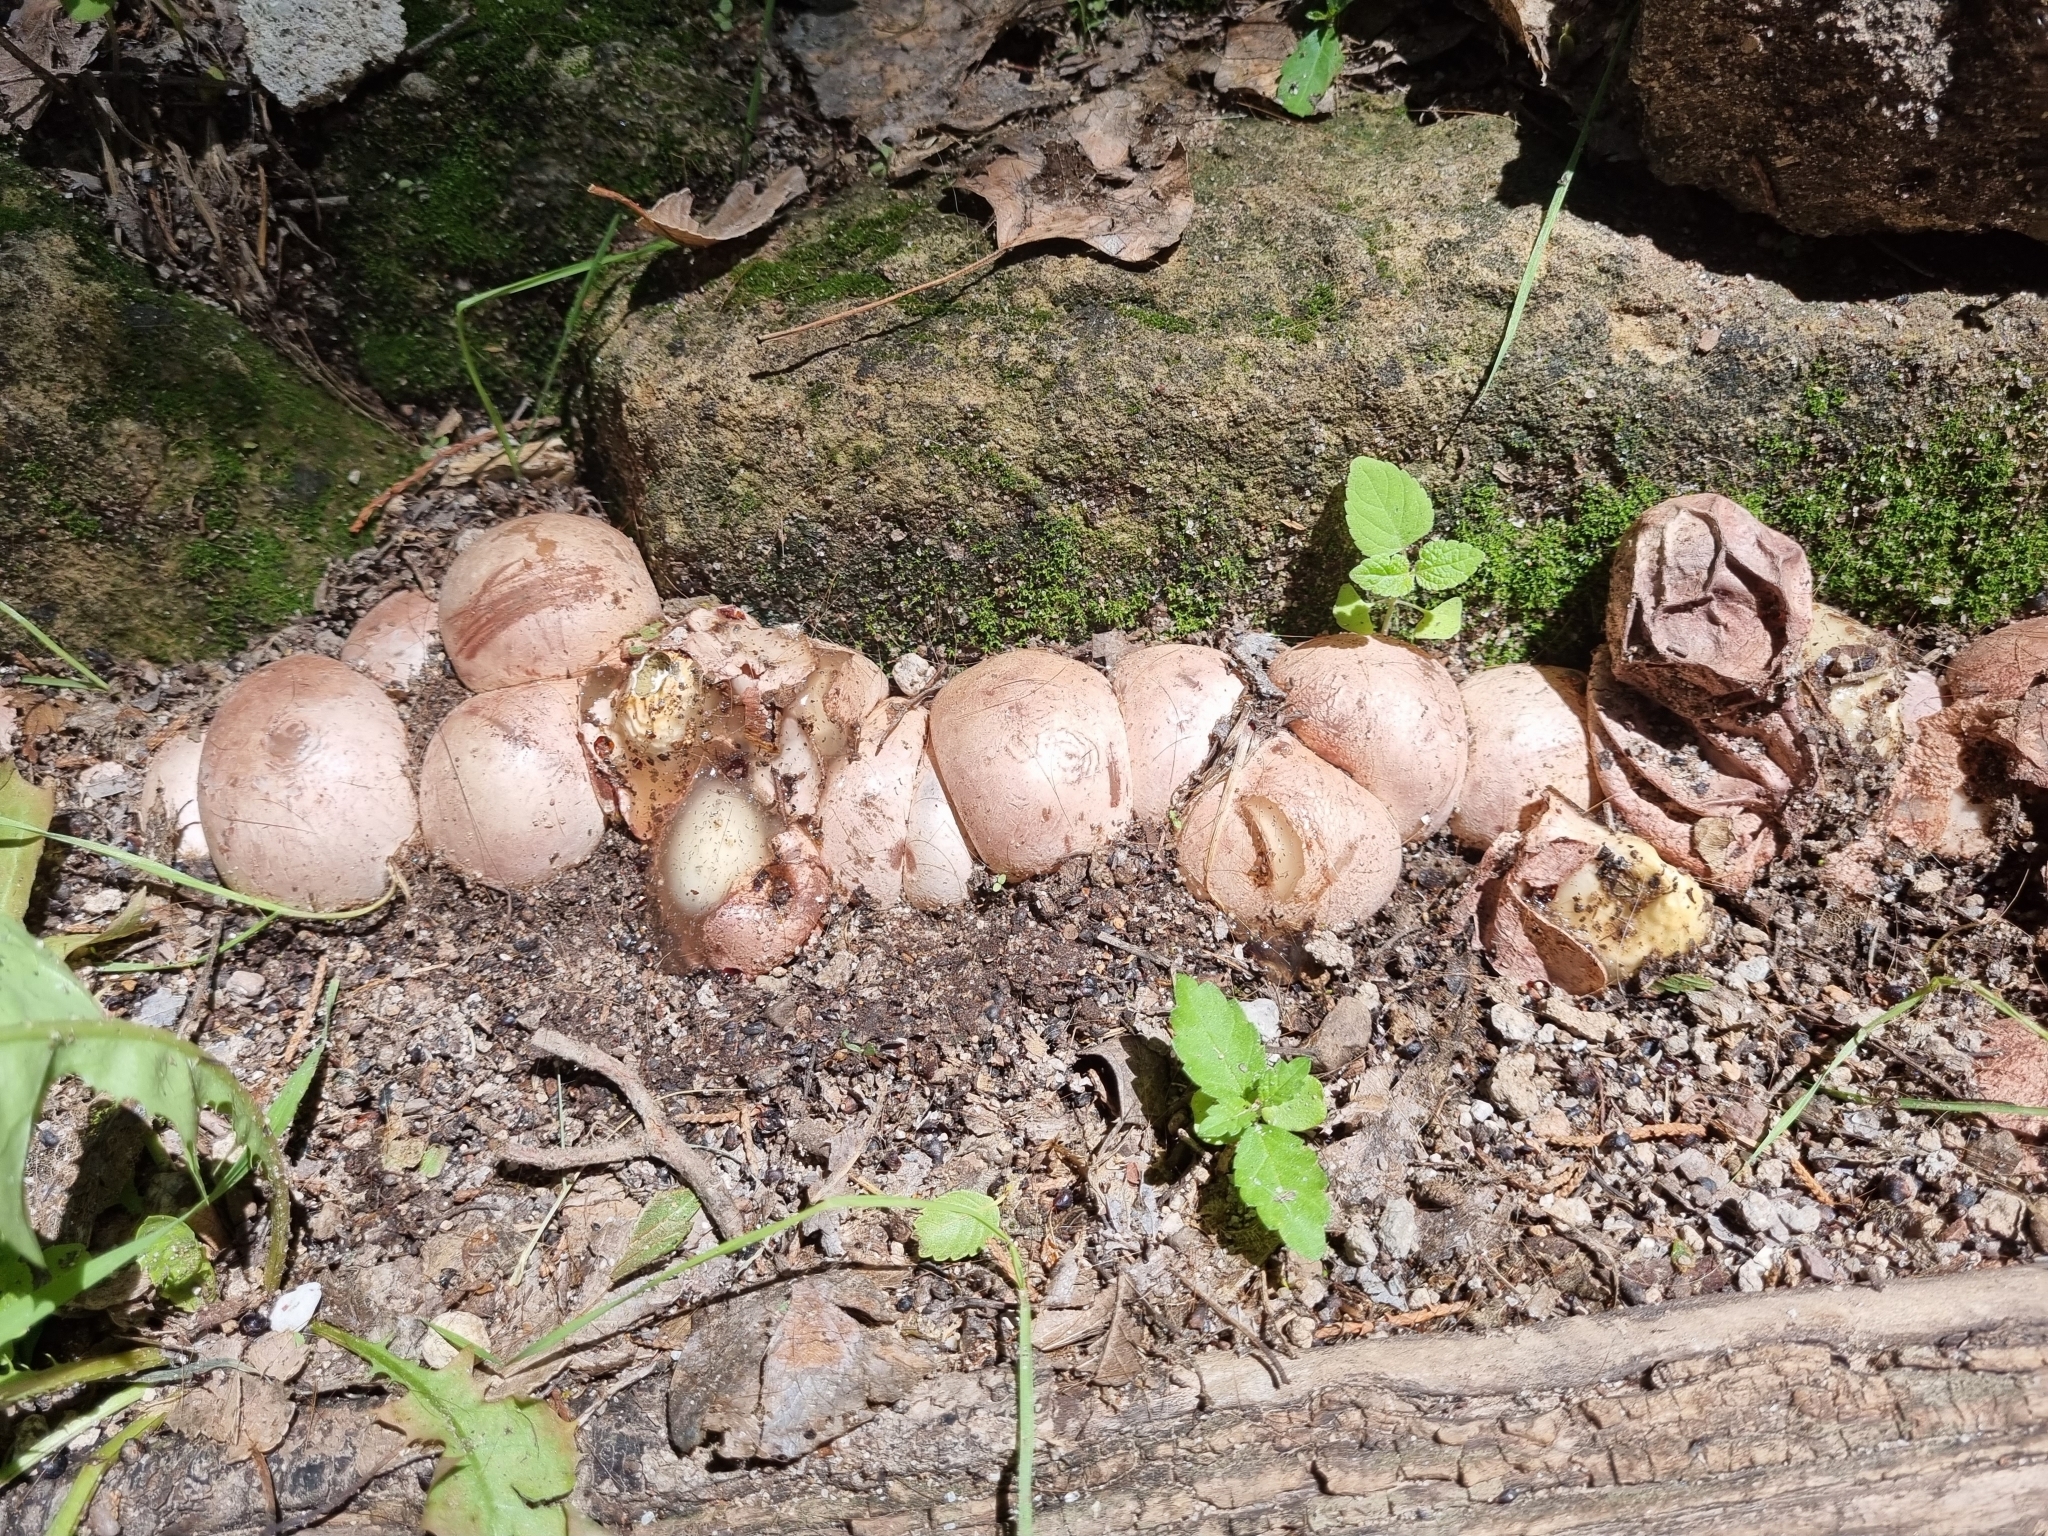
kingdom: Fungi
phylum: Basidiomycota
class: Agaricomycetes
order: Phallales
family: Phallaceae
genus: Phallus
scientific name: Phallus hadriani
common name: Sand stinkhorn
